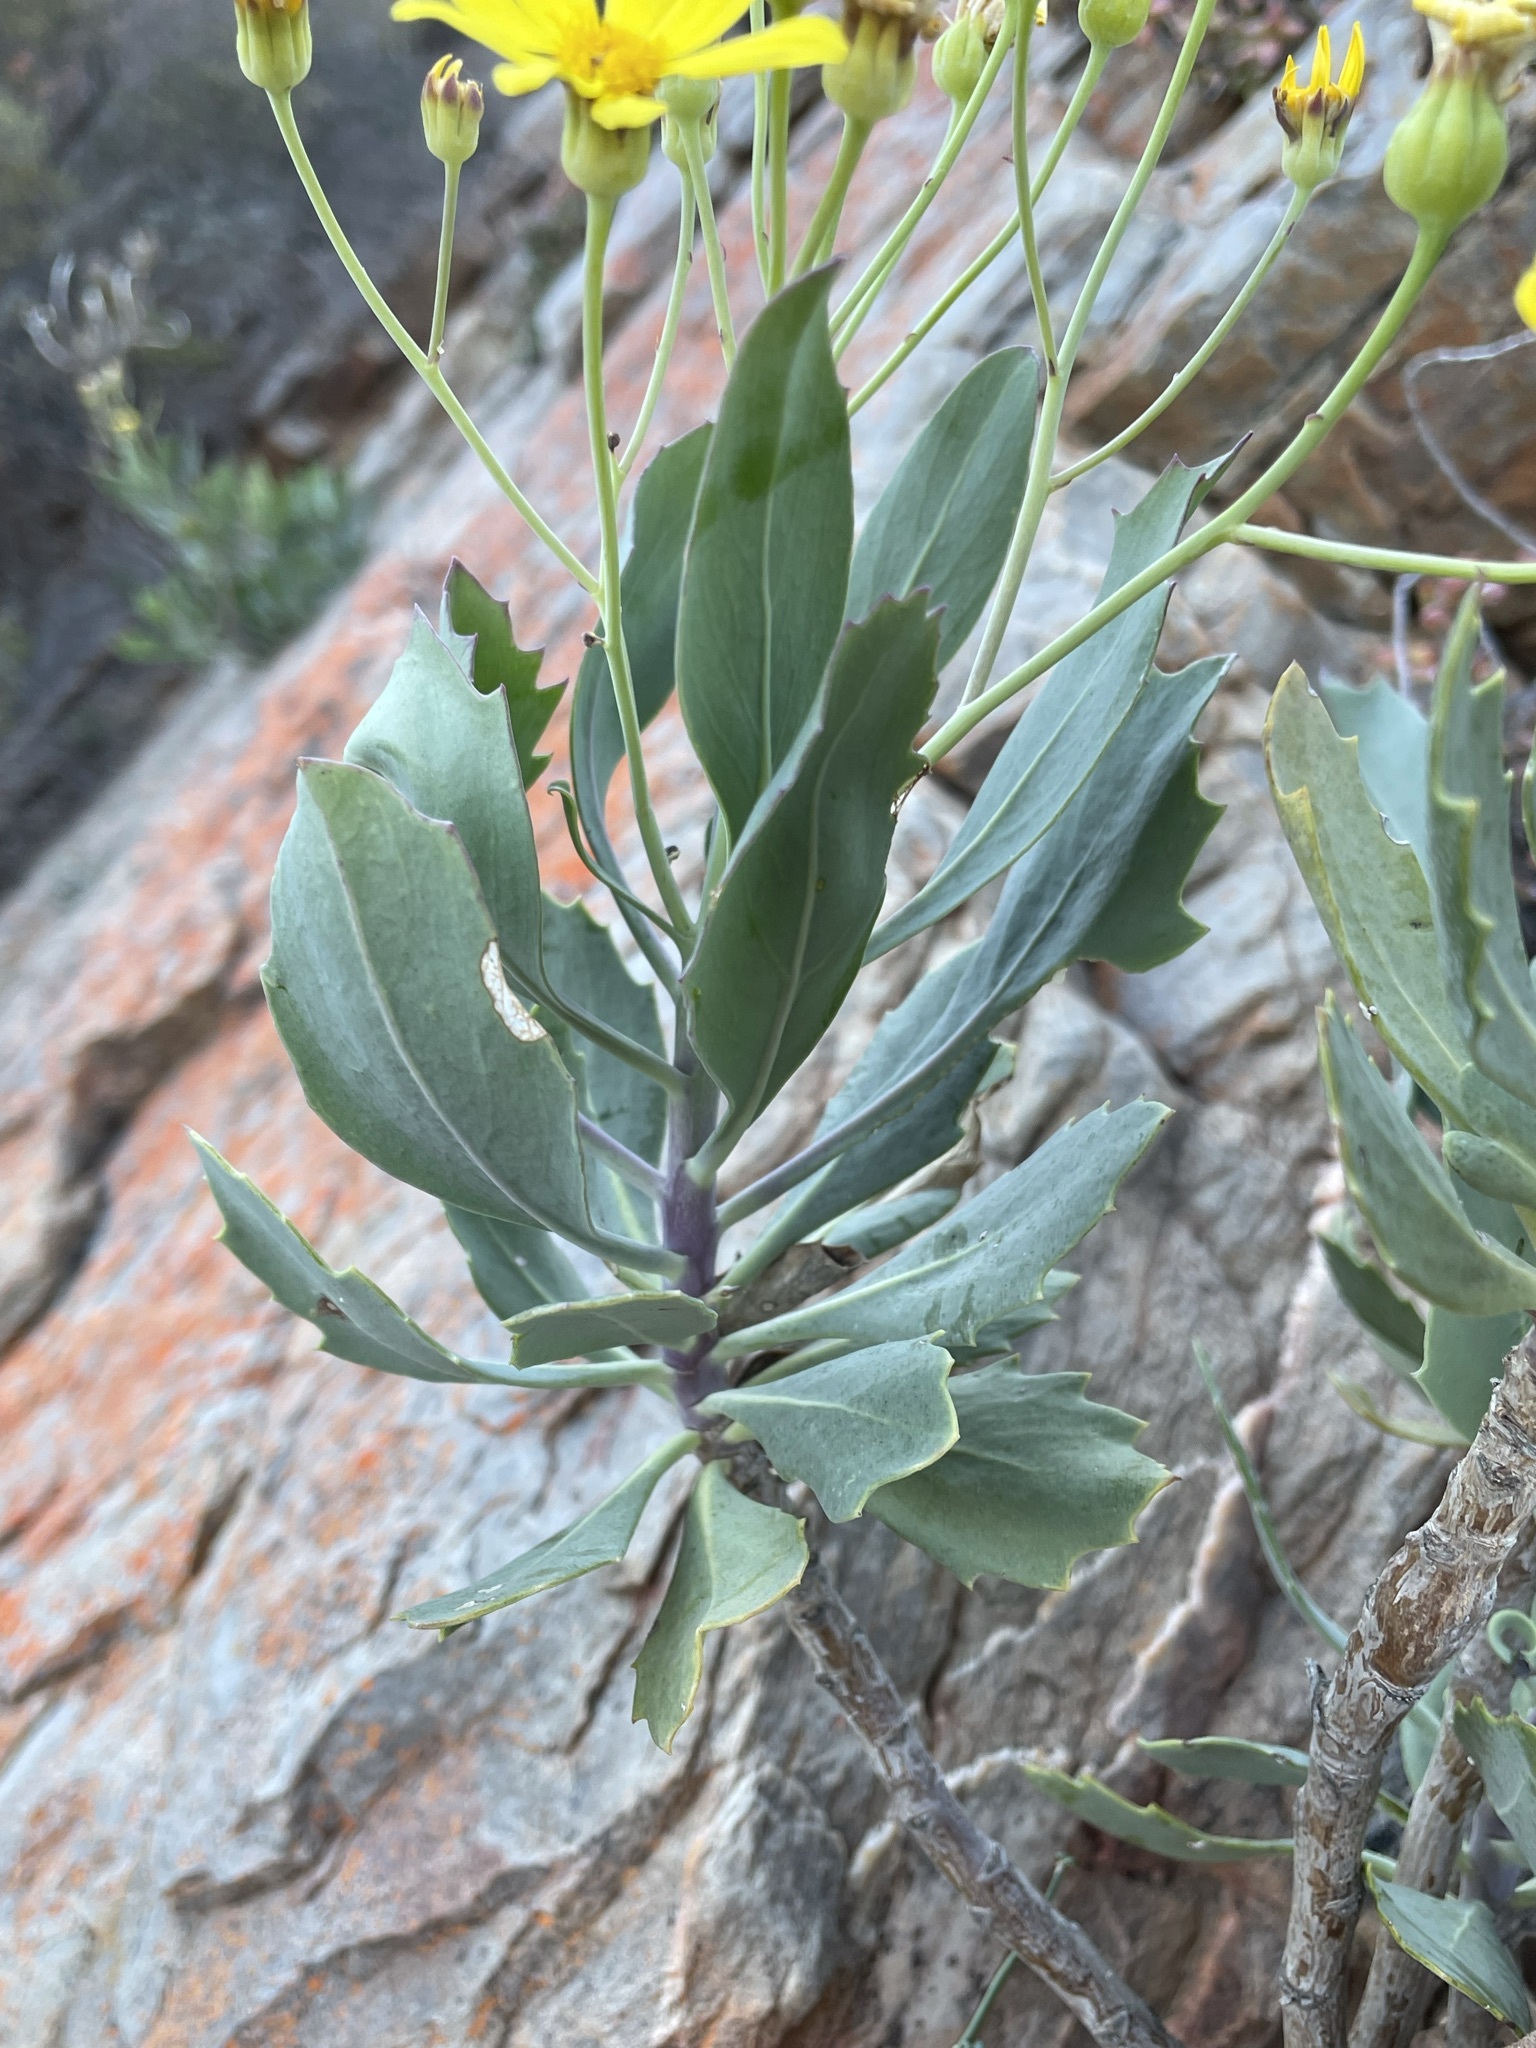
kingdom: Plantae
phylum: Tracheophyta
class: Magnoliopsida
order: Asterales
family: Asteraceae
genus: Othonna
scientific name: Othonna osteospermoides
